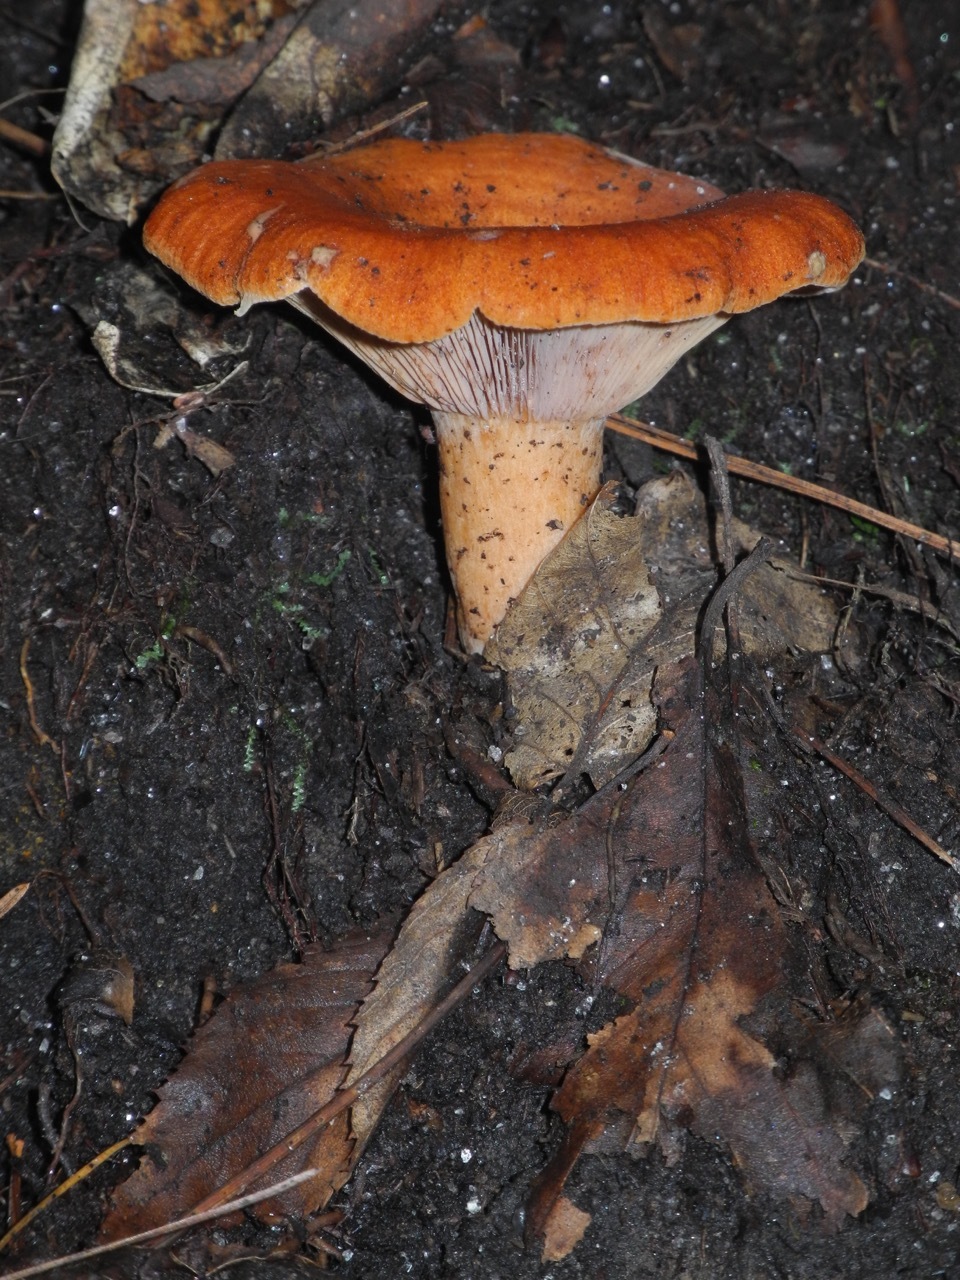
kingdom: Fungi
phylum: Basidiomycota
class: Agaricomycetes
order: Russulales
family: Russulaceae
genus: Lactarius
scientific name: Lactarius rufus
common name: Rufous milk-cap
